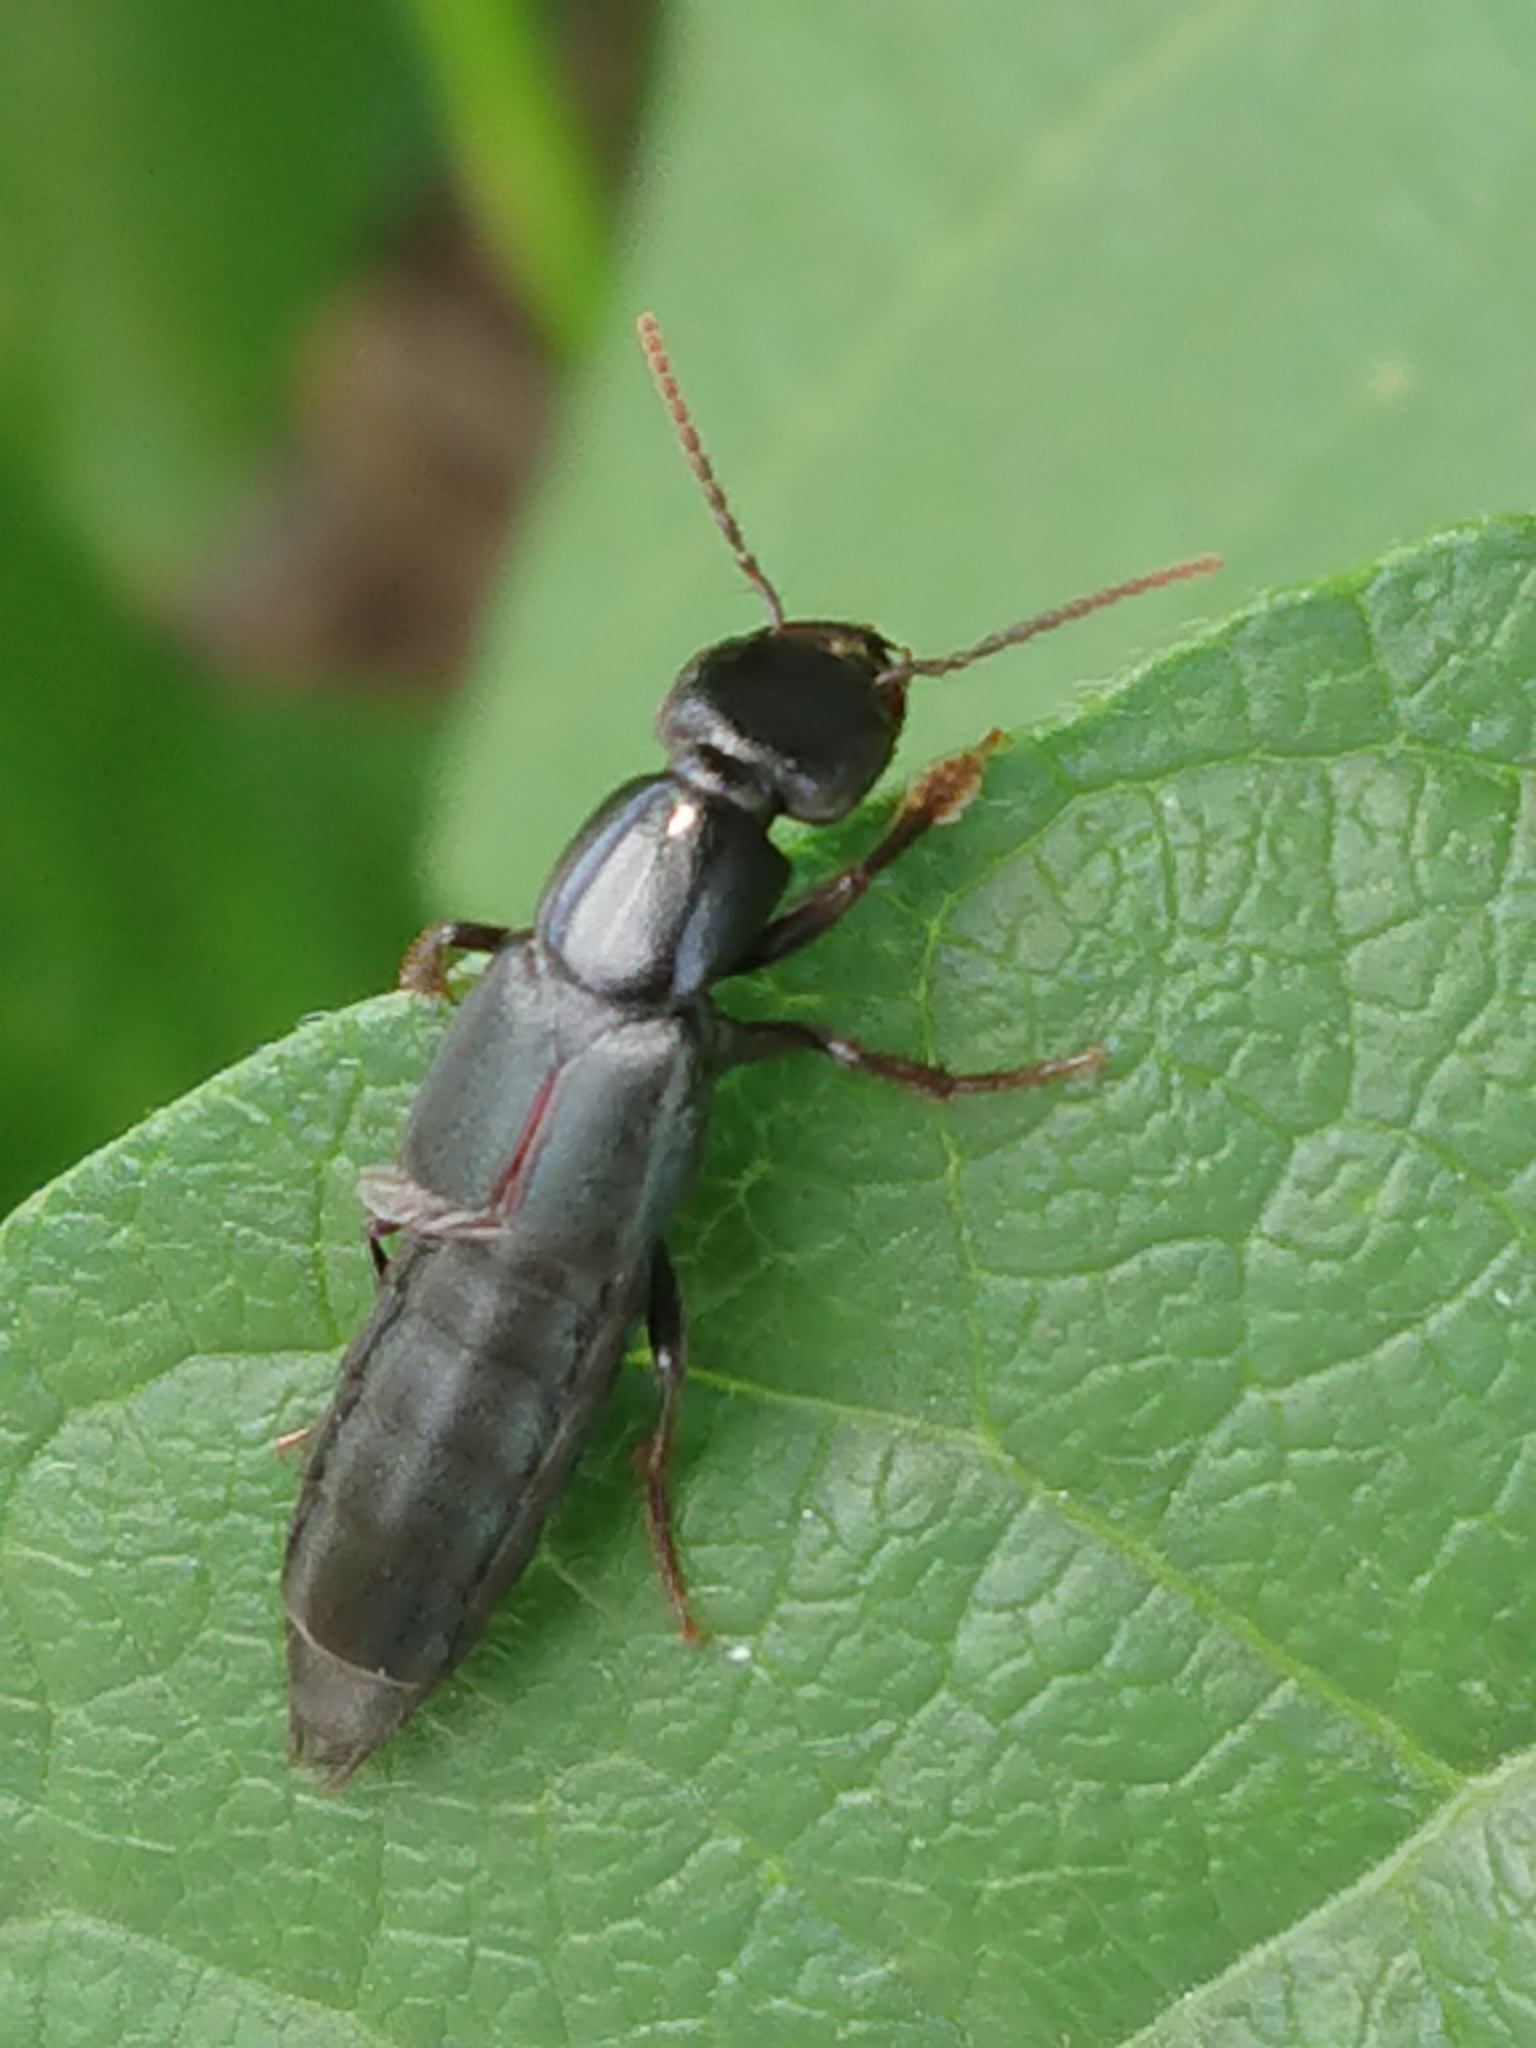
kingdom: Animalia
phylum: Arthropoda
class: Insecta
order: Coleoptera
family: Staphylinidae
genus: Tasgius
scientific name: Tasgius ater
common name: Staph beetle
